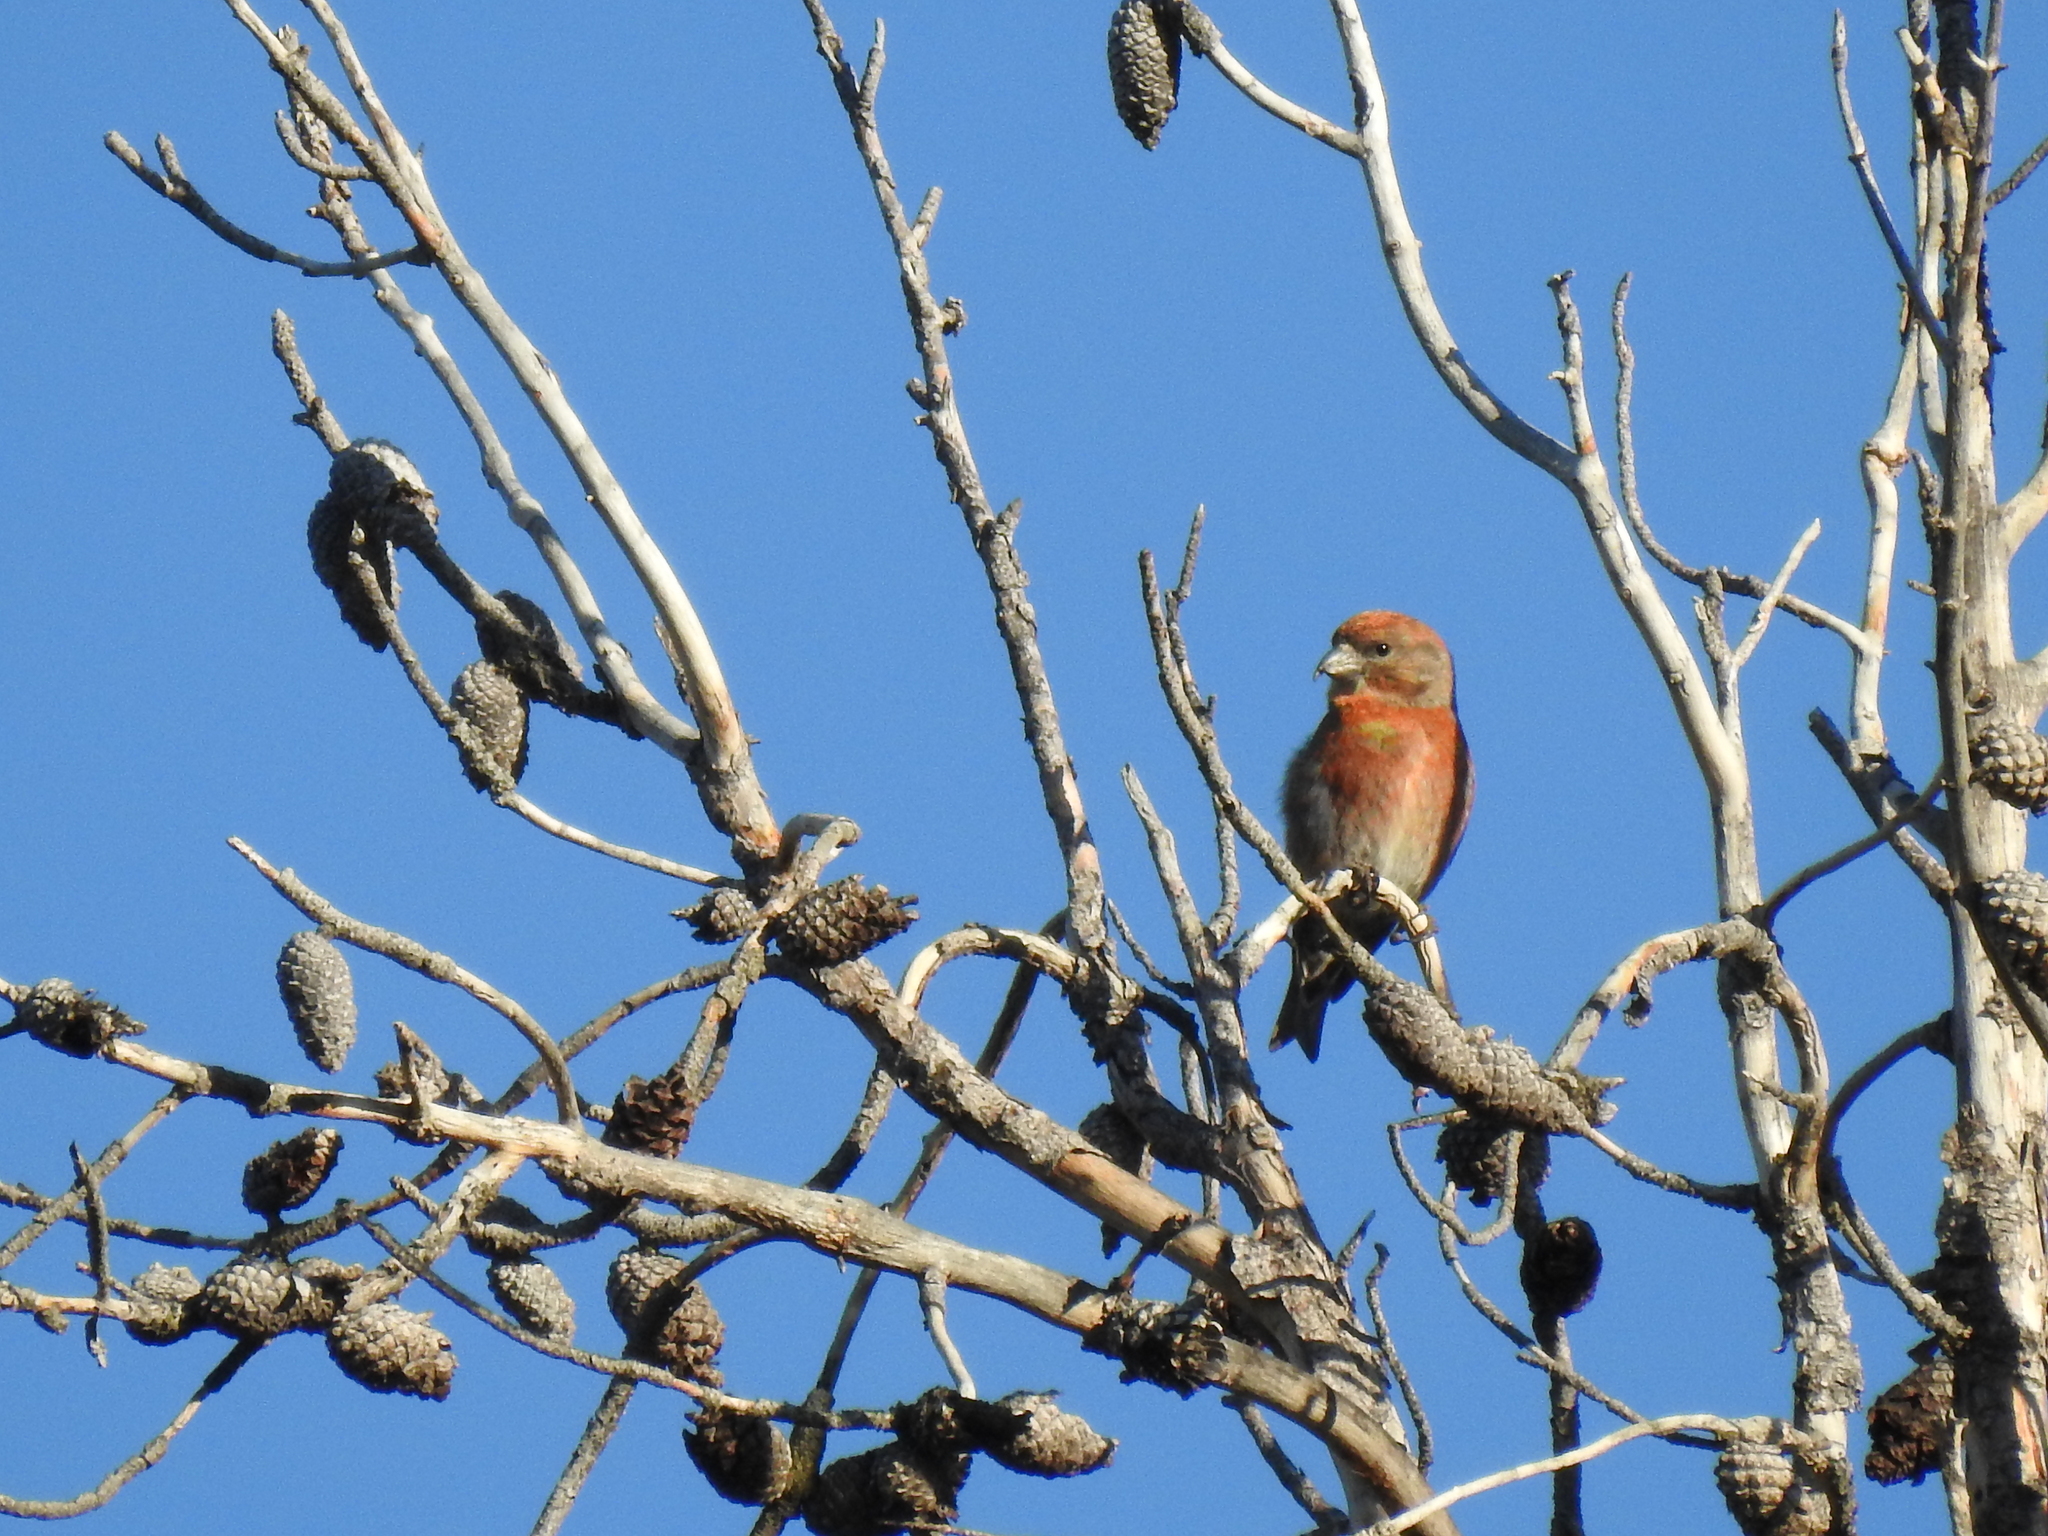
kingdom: Animalia
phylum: Chordata
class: Aves
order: Passeriformes
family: Fringillidae
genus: Loxia
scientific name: Loxia sinesciuris
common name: Cassia crossbill
